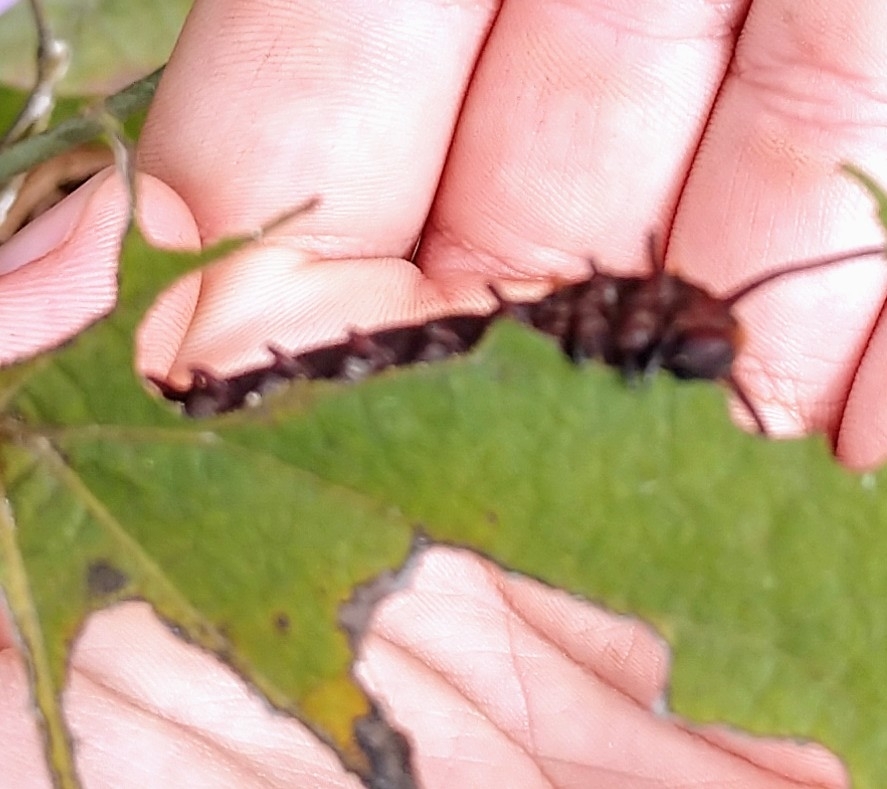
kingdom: Animalia
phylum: Arthropoda
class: Insecta
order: Lepidoptera
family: Papilionidae
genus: Battus
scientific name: Battus philenor
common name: Pipevine swallowtail
